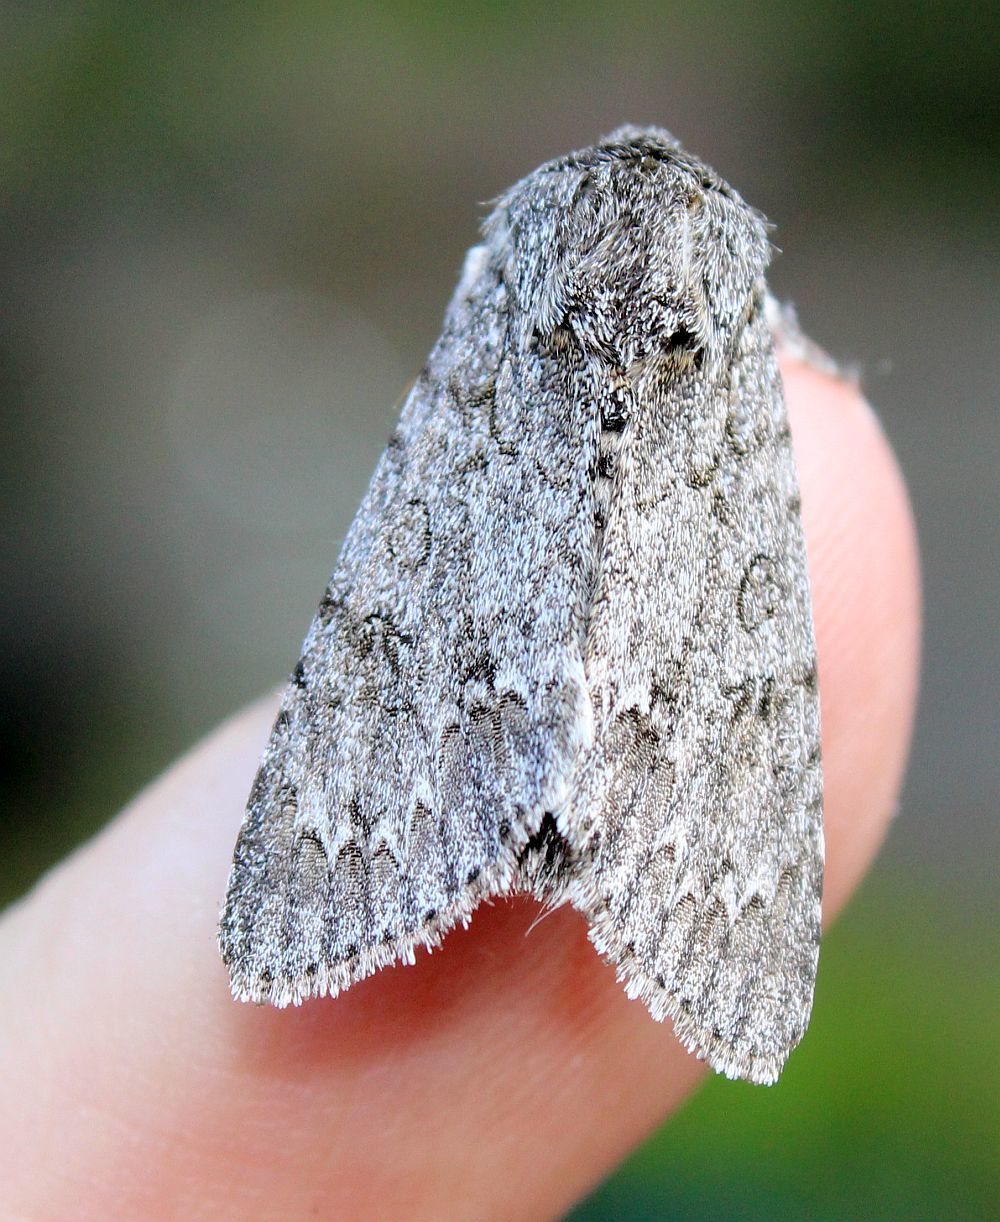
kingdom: Animalia
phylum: Arthropoda
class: Insecta
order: Lepidoptera
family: Noctuidae
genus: Acronicta
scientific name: Acronicta aceris
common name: Sycamore
